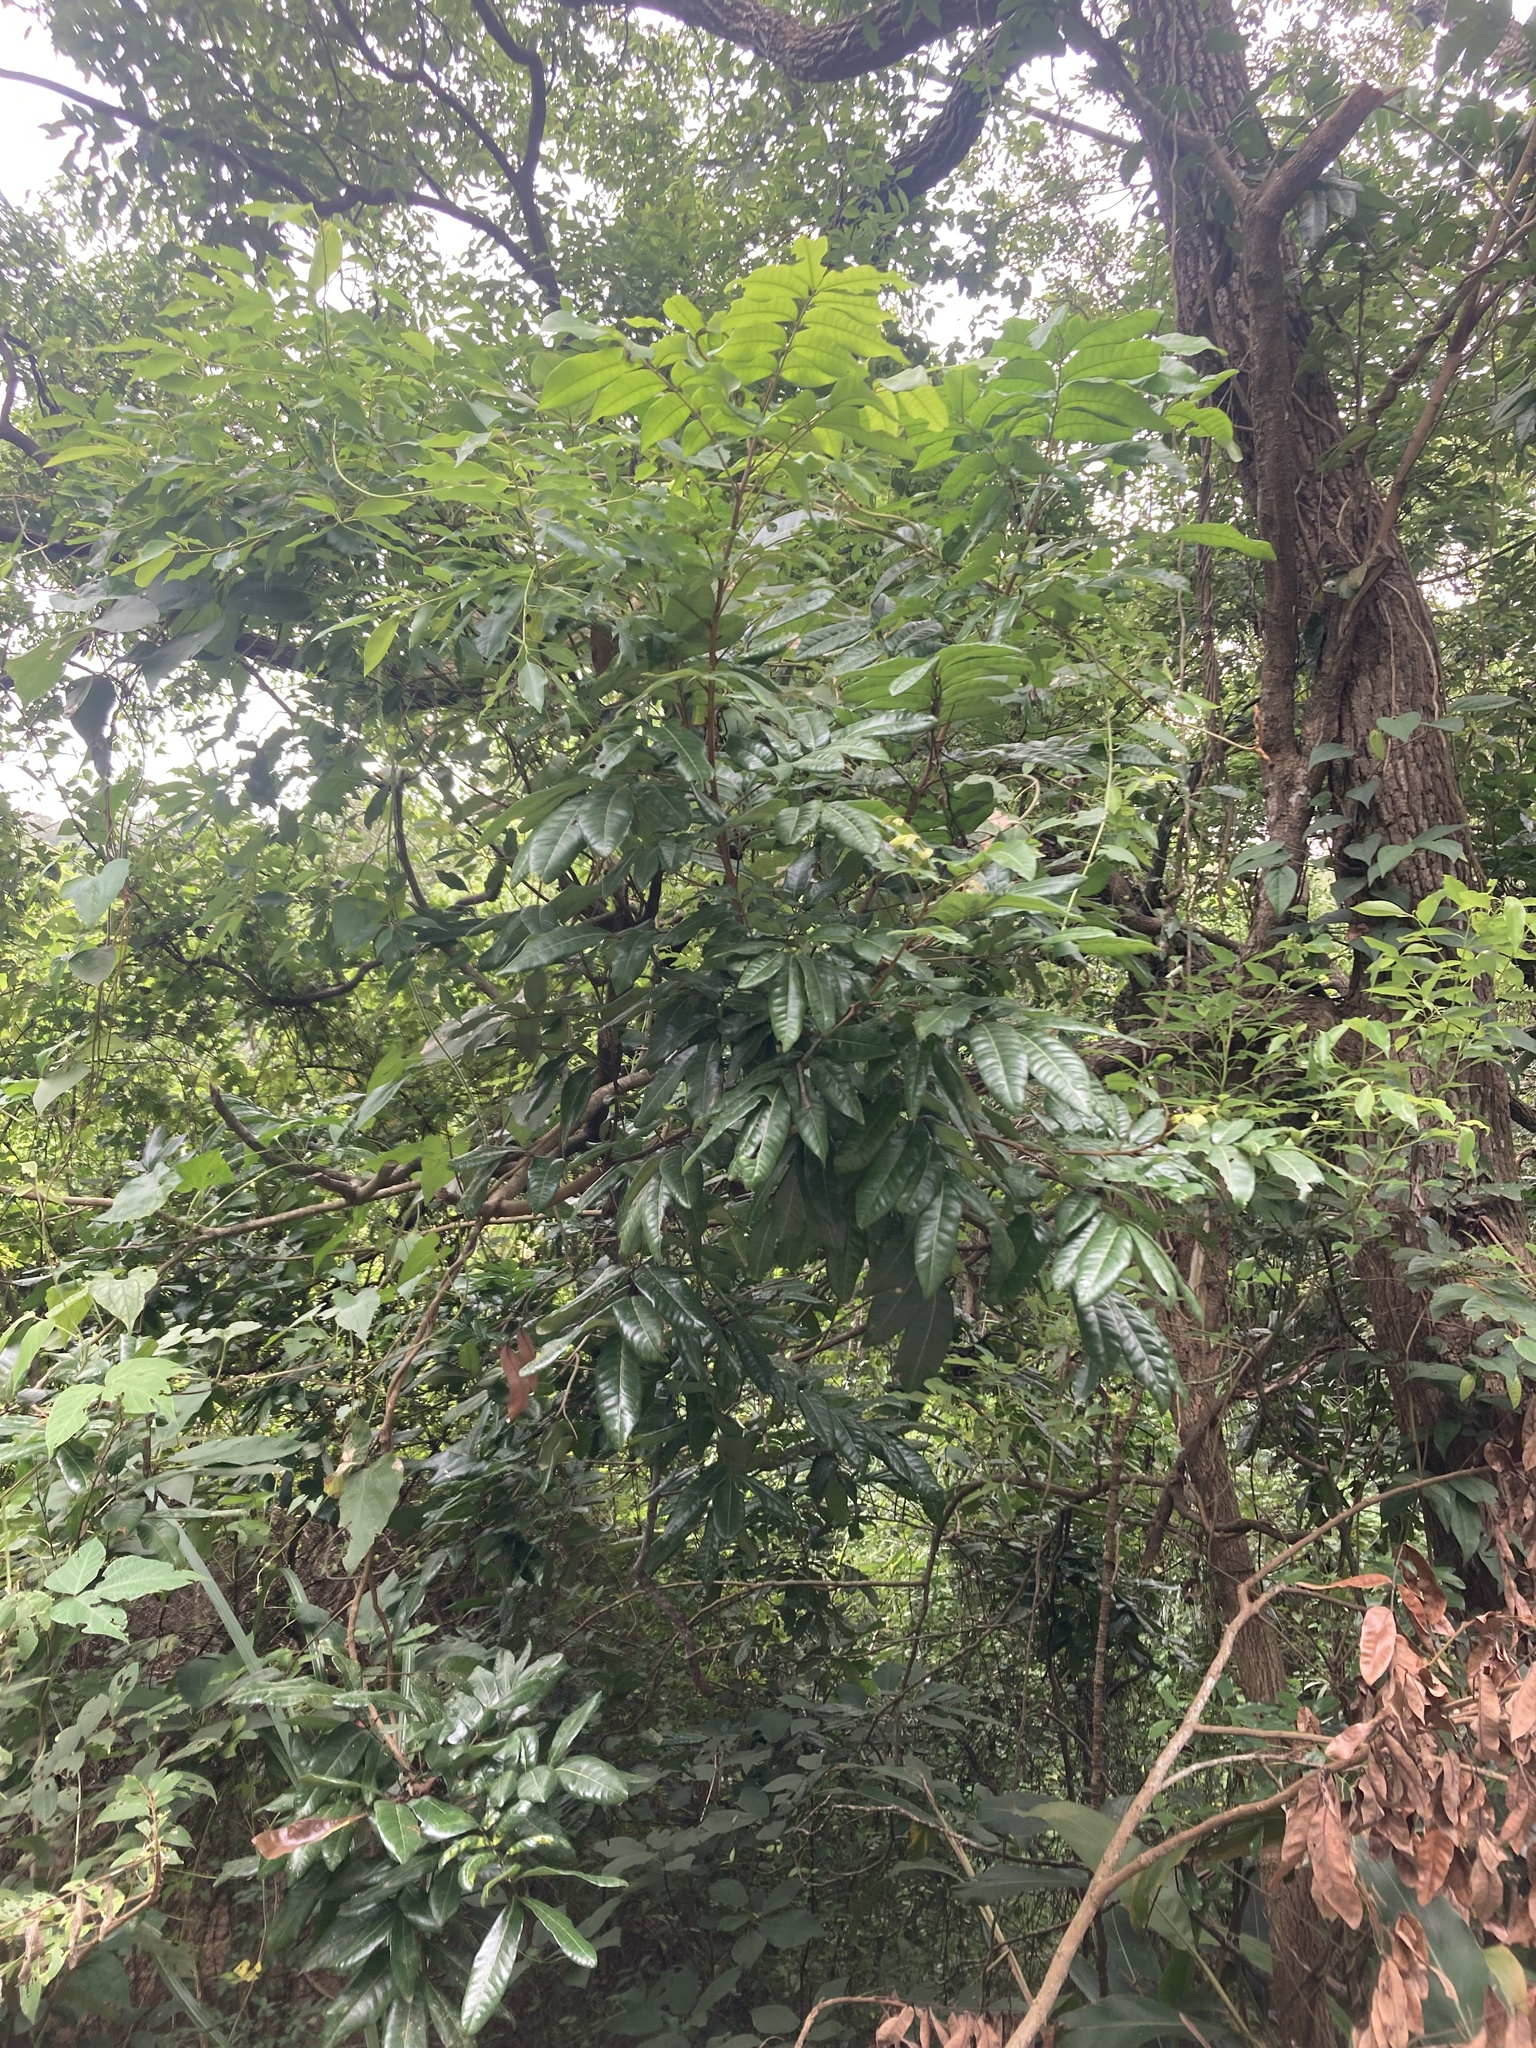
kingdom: Plantae
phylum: Tracheophyta
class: Magnoliopsida
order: Sapindales
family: Sapindaceae
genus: Dimocarpus
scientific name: Dimocarpus longan
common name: Longan
